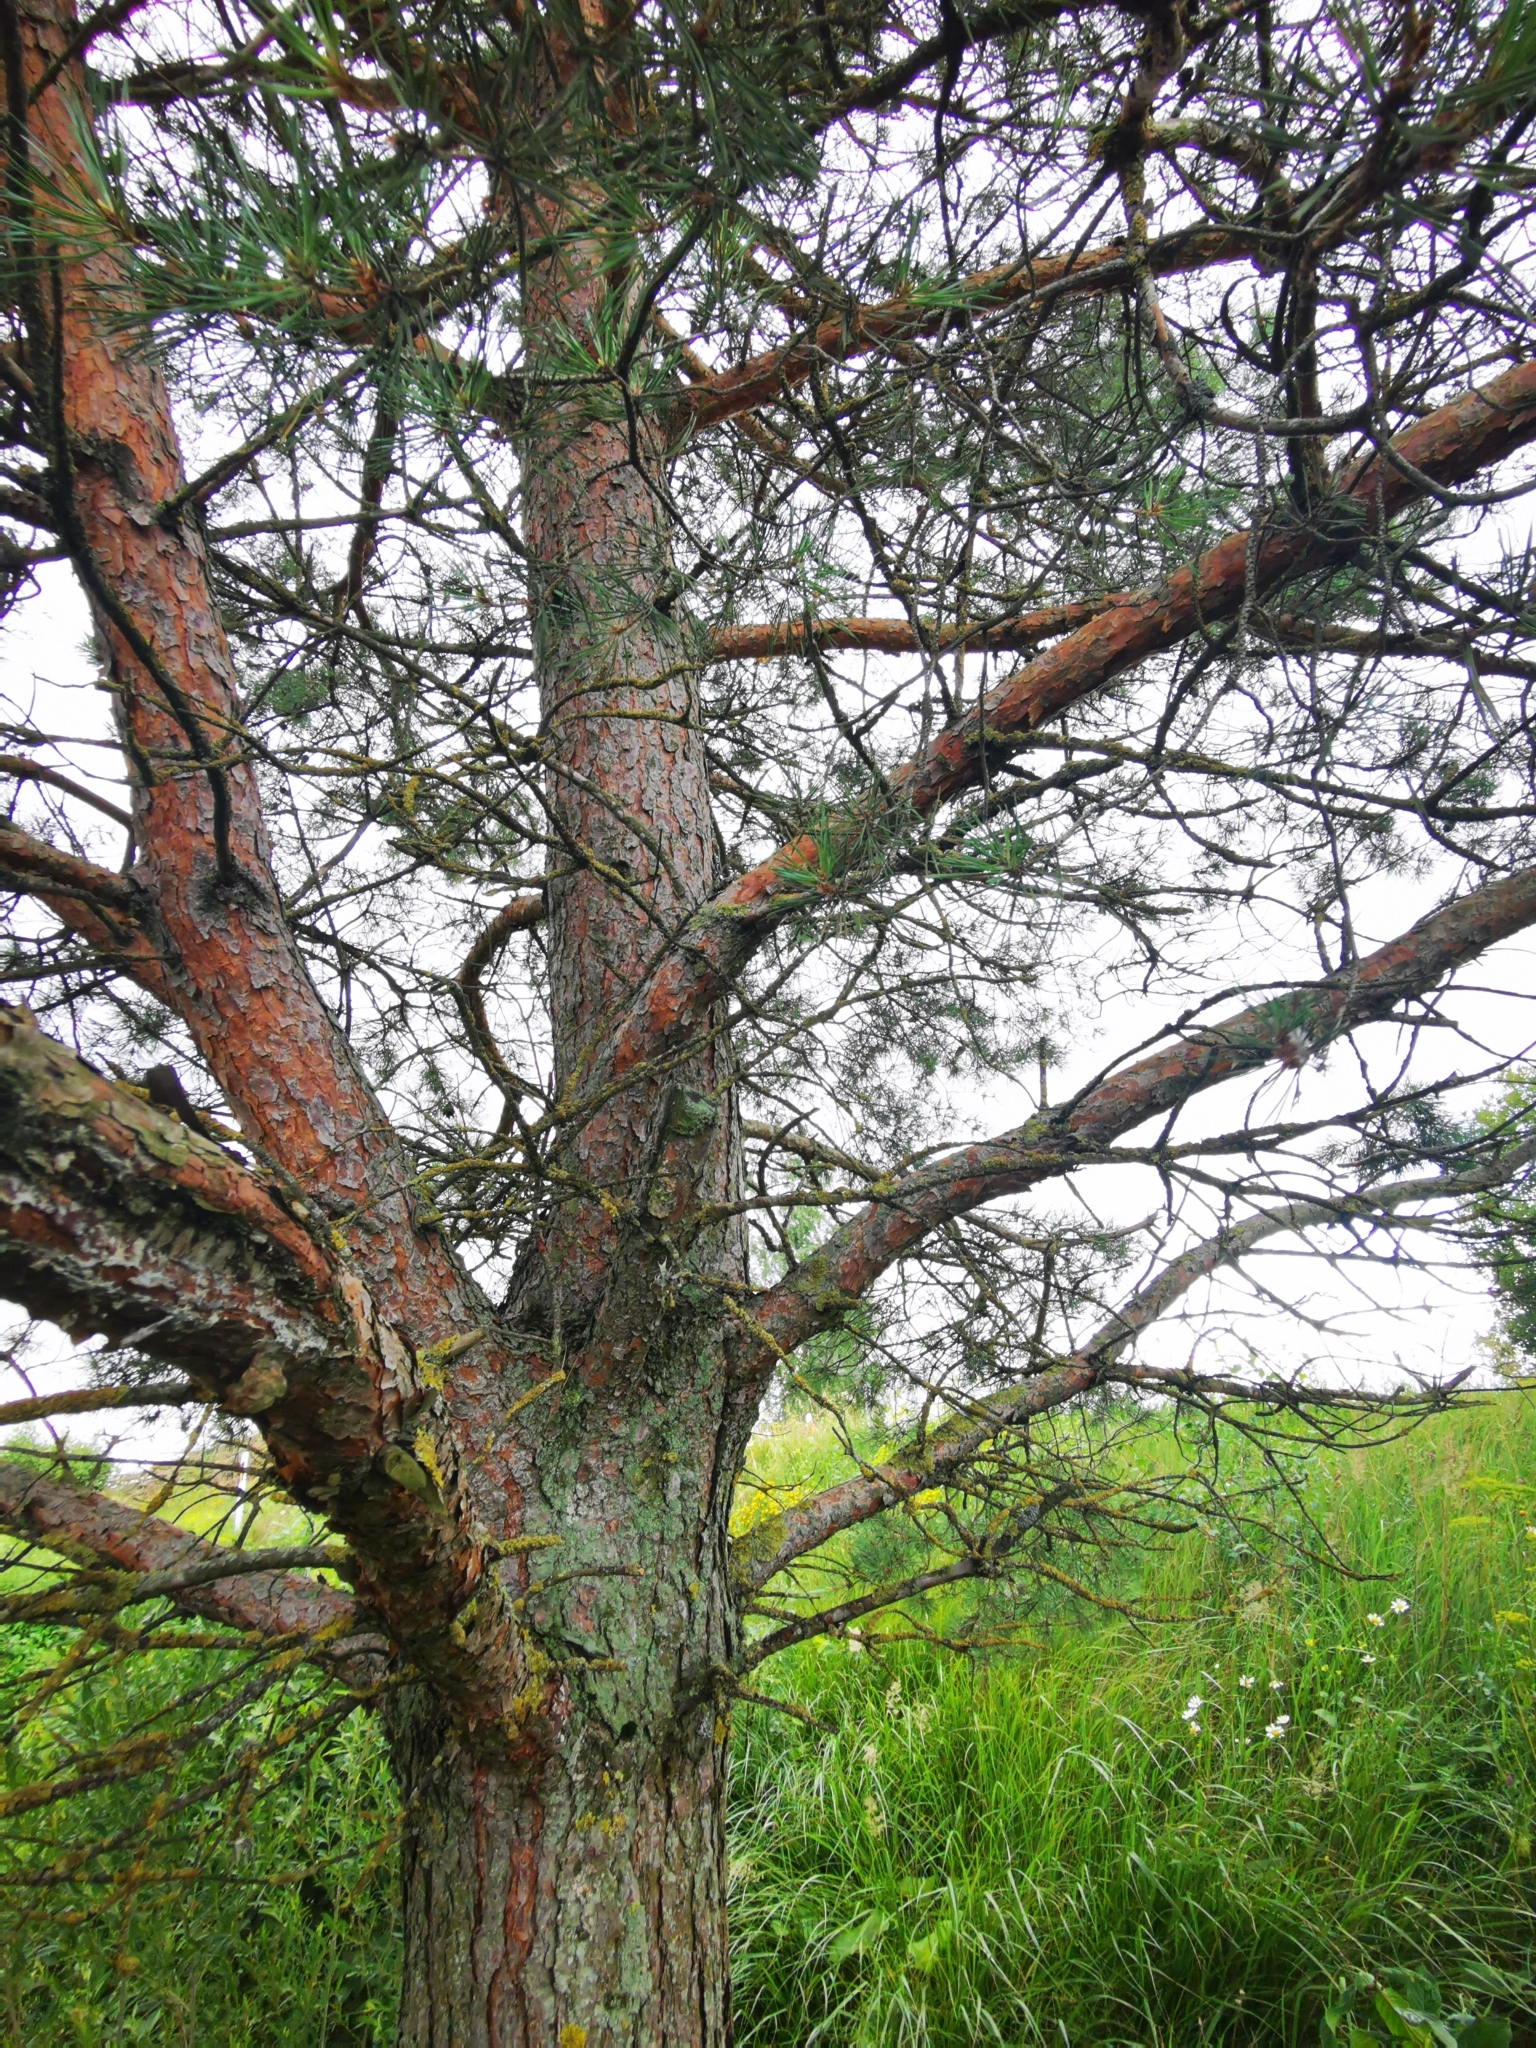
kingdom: Plantae
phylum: Tracheophyta
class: Pinopsida
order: Pinales
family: Pinaceae
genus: Pinus
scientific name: Pinus sylvestris
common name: Scots pine
